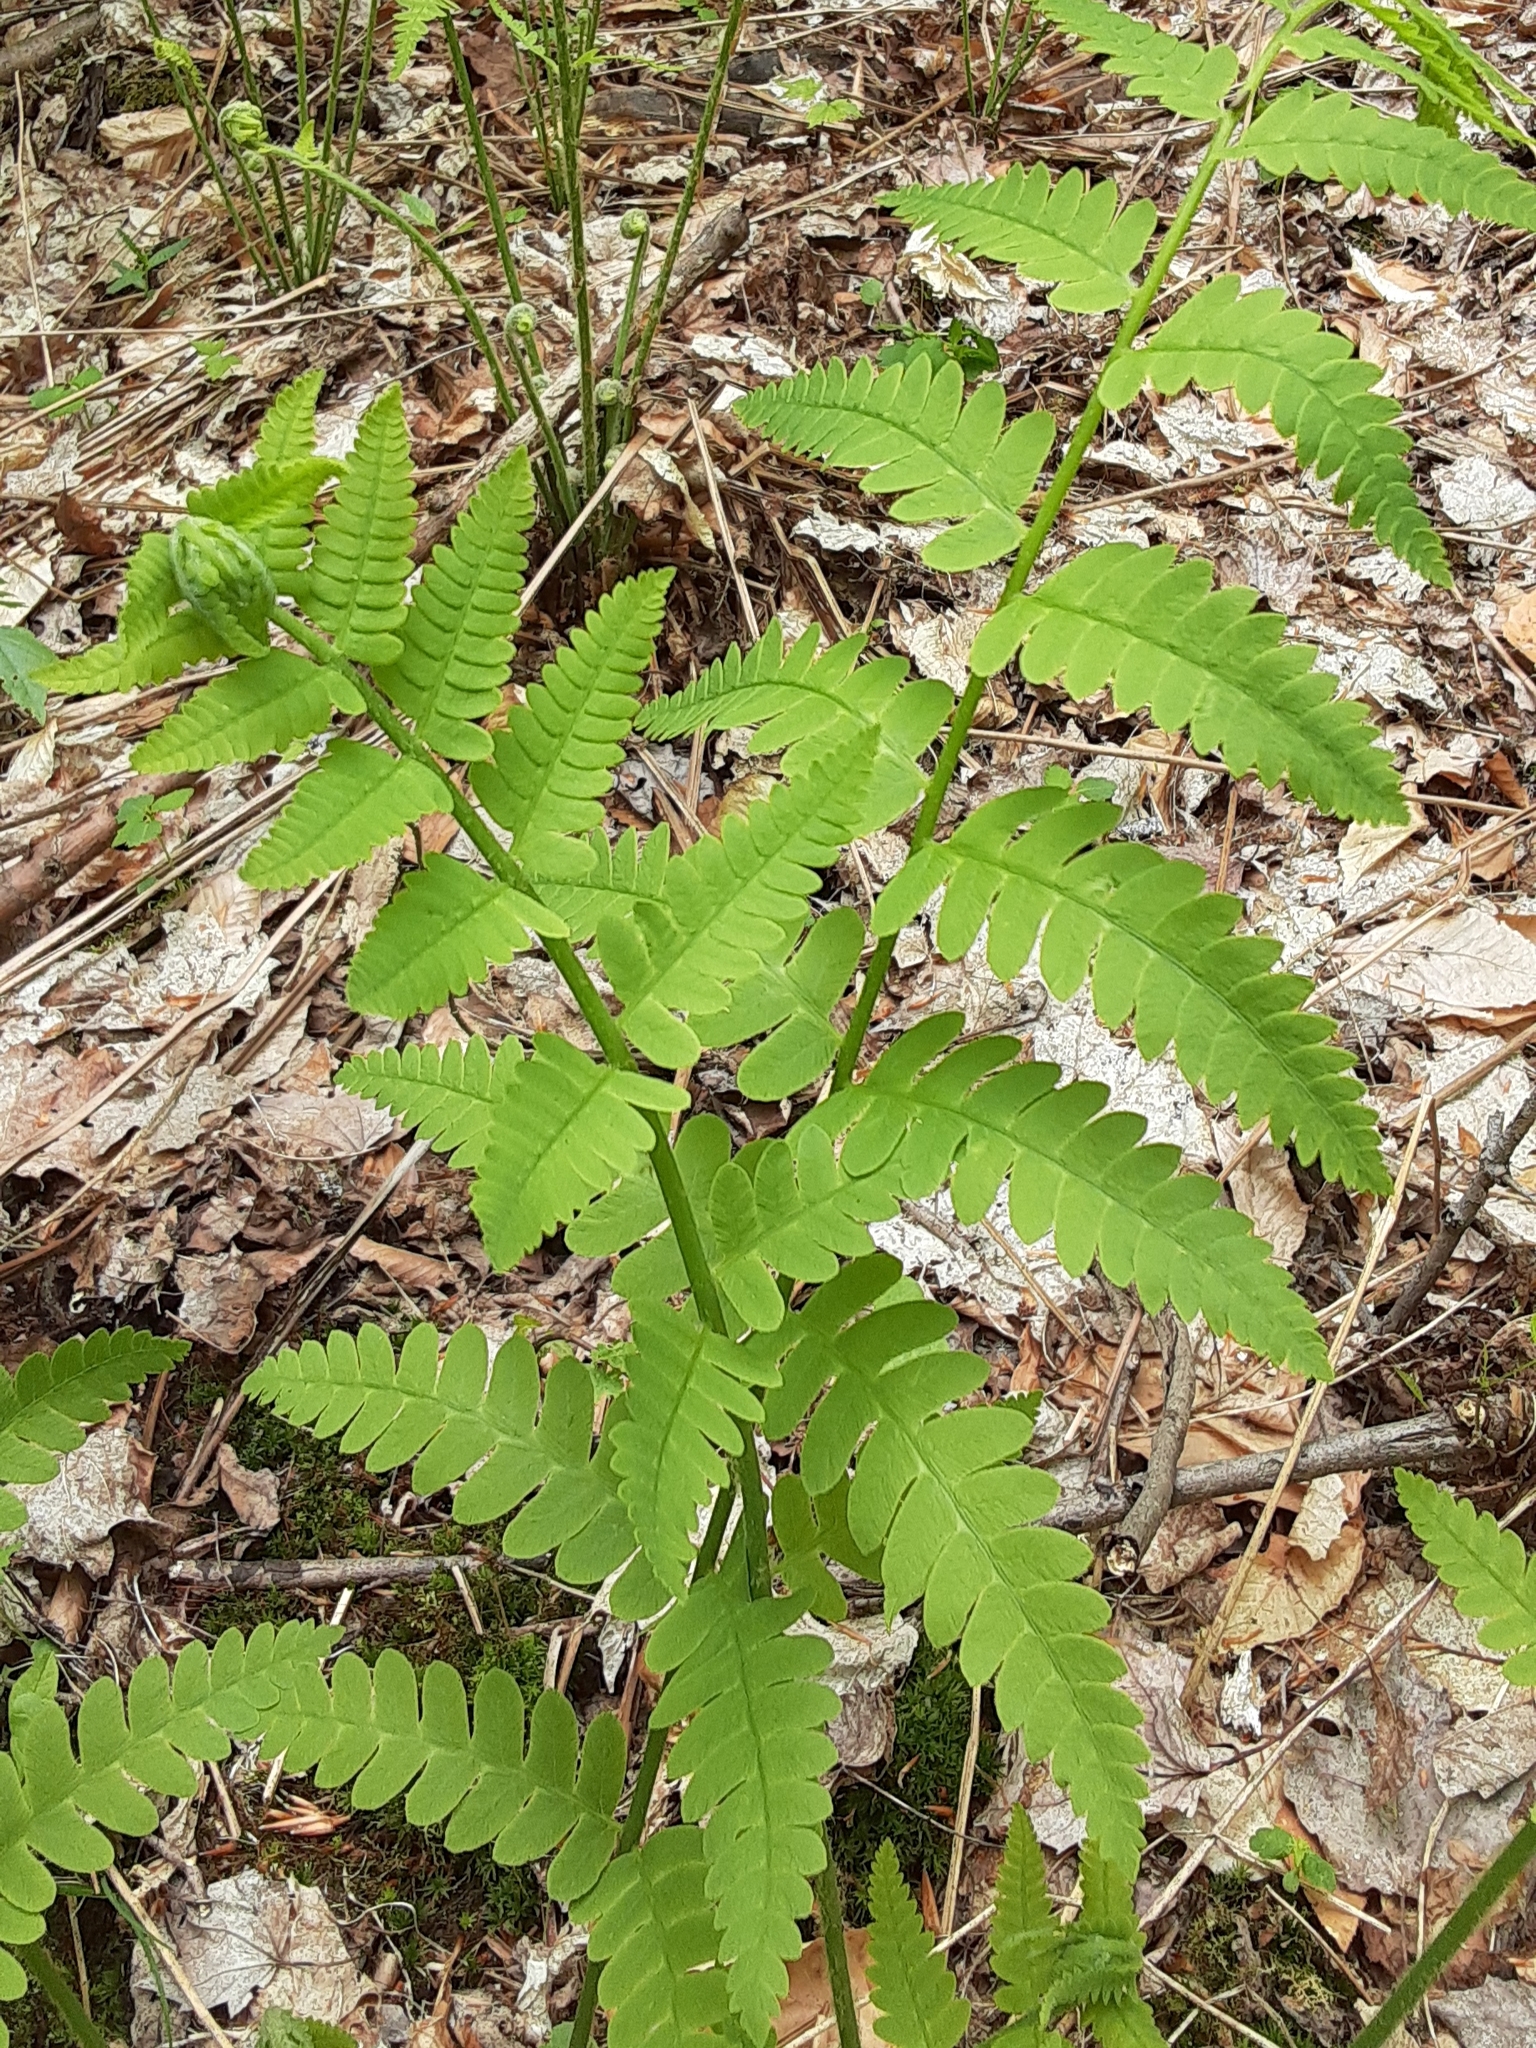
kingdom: Plantae
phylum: Tracheophyta
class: Polypodiopsida
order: Osmundales
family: Osmundaceae
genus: Claytosmunda
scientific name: Claytosmunda claytoniana
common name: Clayton's fern
